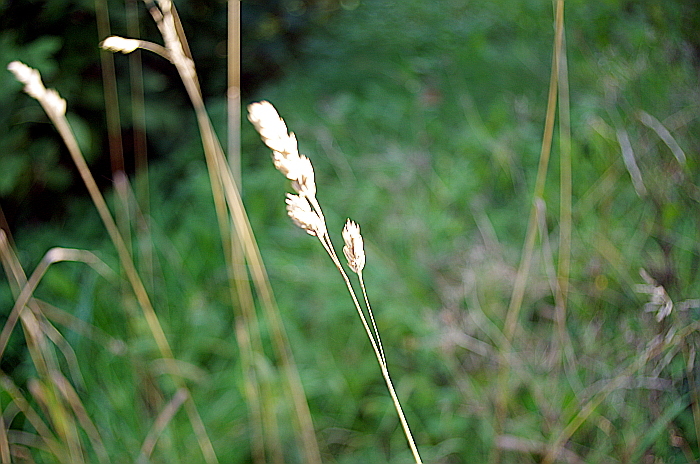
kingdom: Plantae
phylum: Tracheophyta
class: Liliopsida
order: Poales
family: Poaceae
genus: Dactylis
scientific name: Dactylis glomerata
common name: Orchardgrass
